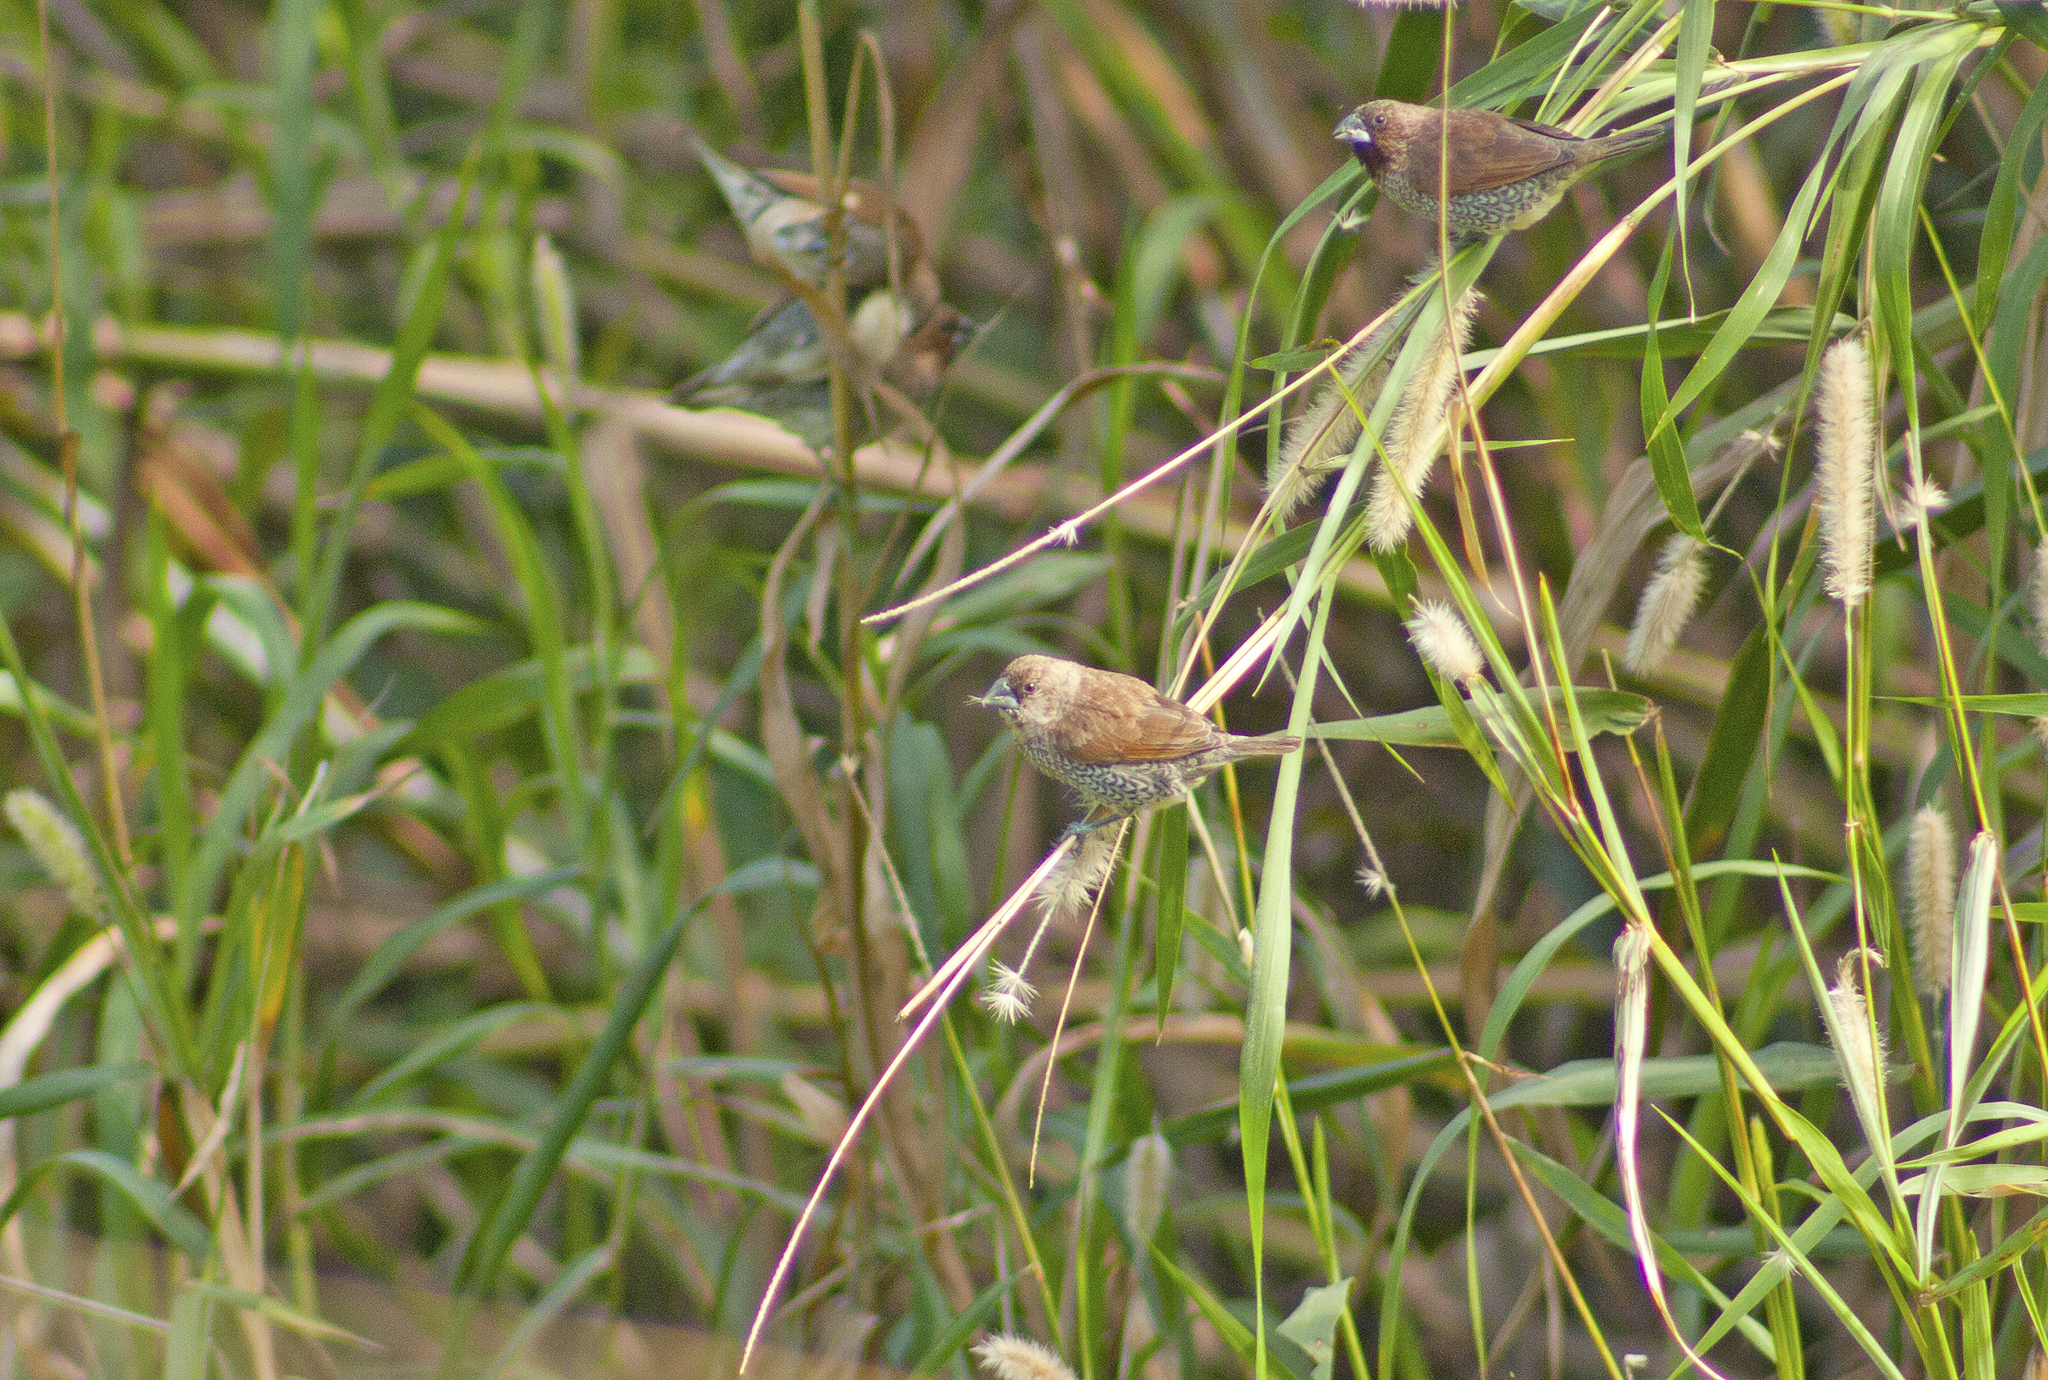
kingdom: Animalia
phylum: Chordata
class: Aves
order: Passeriformes
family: Estrildidae
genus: Lonchura
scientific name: Lonchura punctulata
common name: Scaly-breasted munia
